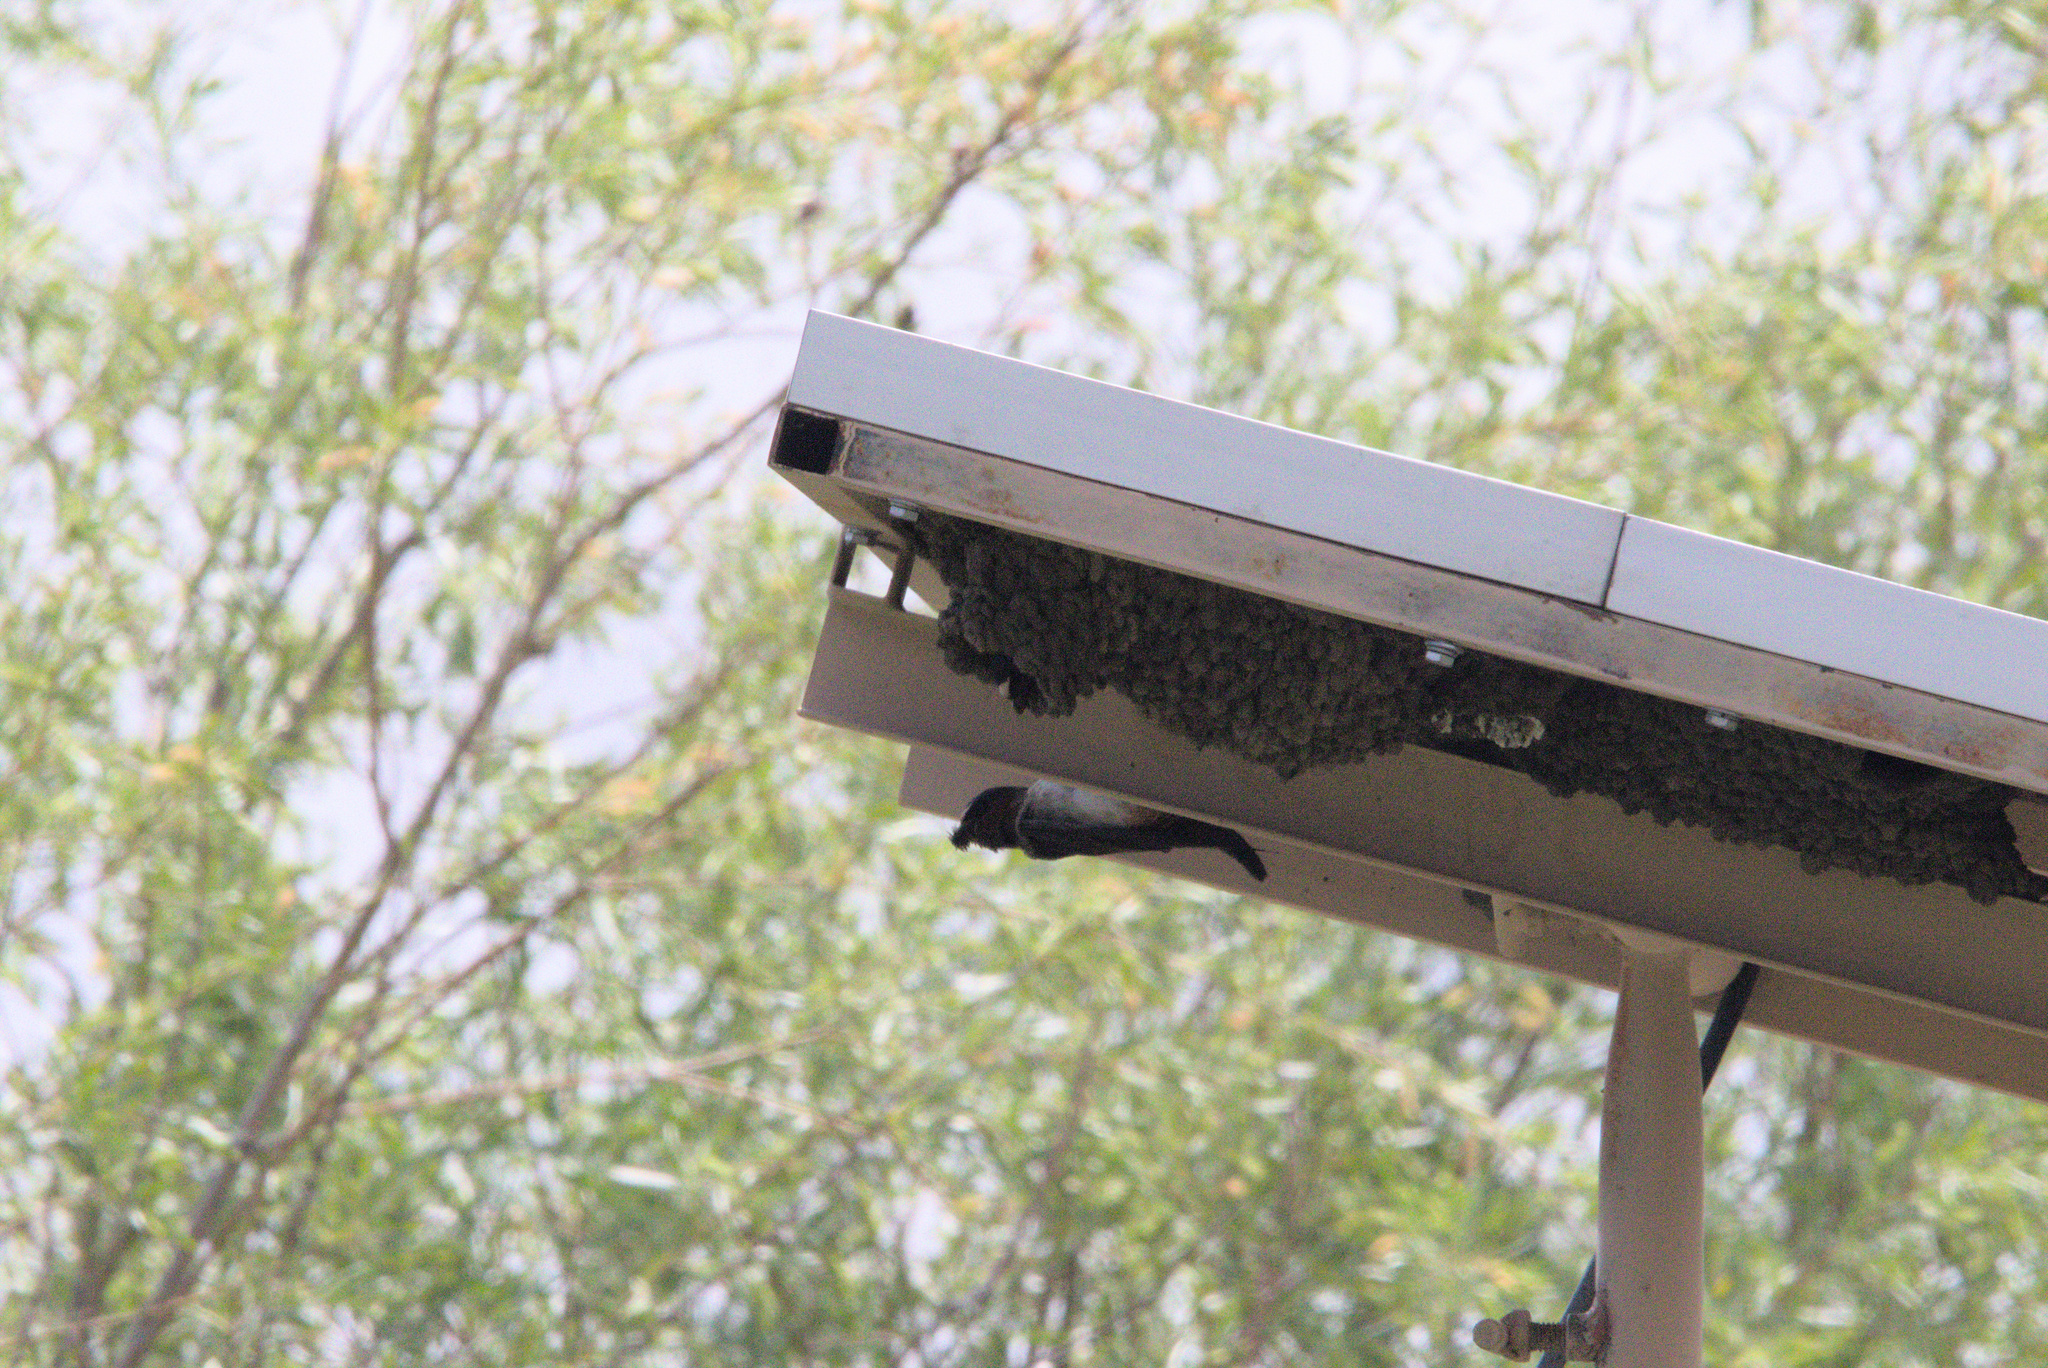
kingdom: Animalia
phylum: Chordata
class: Aves
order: Passeriformes
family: Hirundinidae
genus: Petrochelidon
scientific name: Petrochelidon pyrrhonota
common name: American cliff swallow
